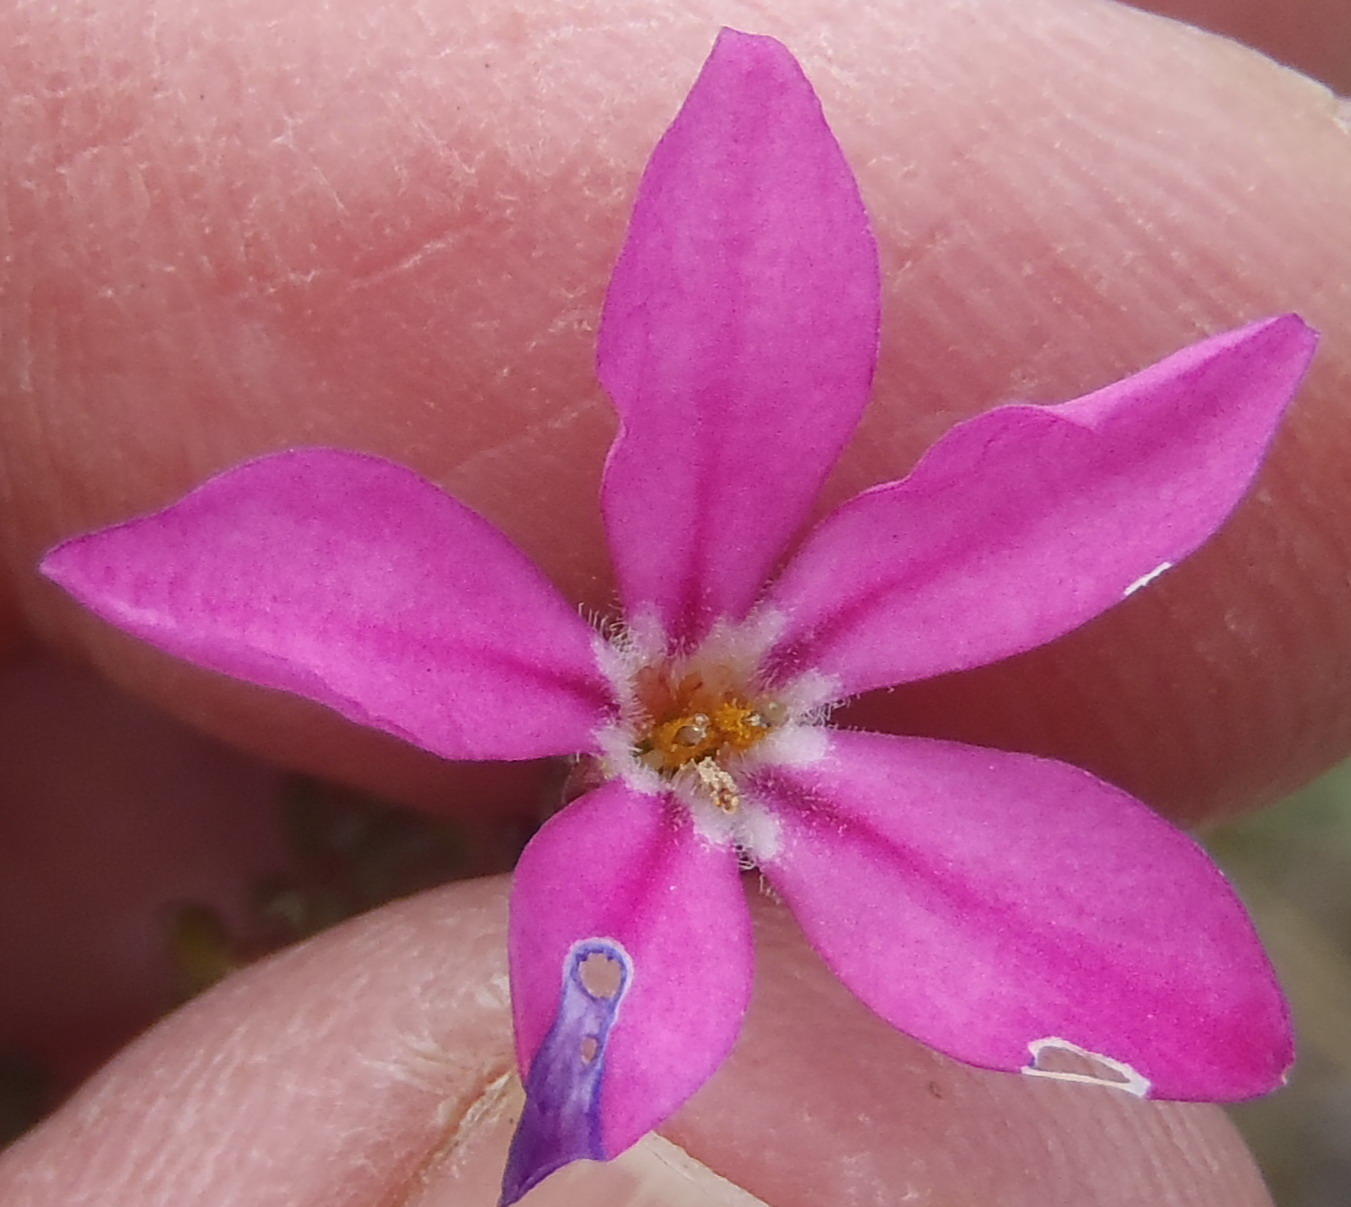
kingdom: Plantae
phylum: Tracheophyta
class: Magnoliopsida
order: Sapindales
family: Rutaceae
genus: Acmadenia
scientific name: Acmadenia sheilae
